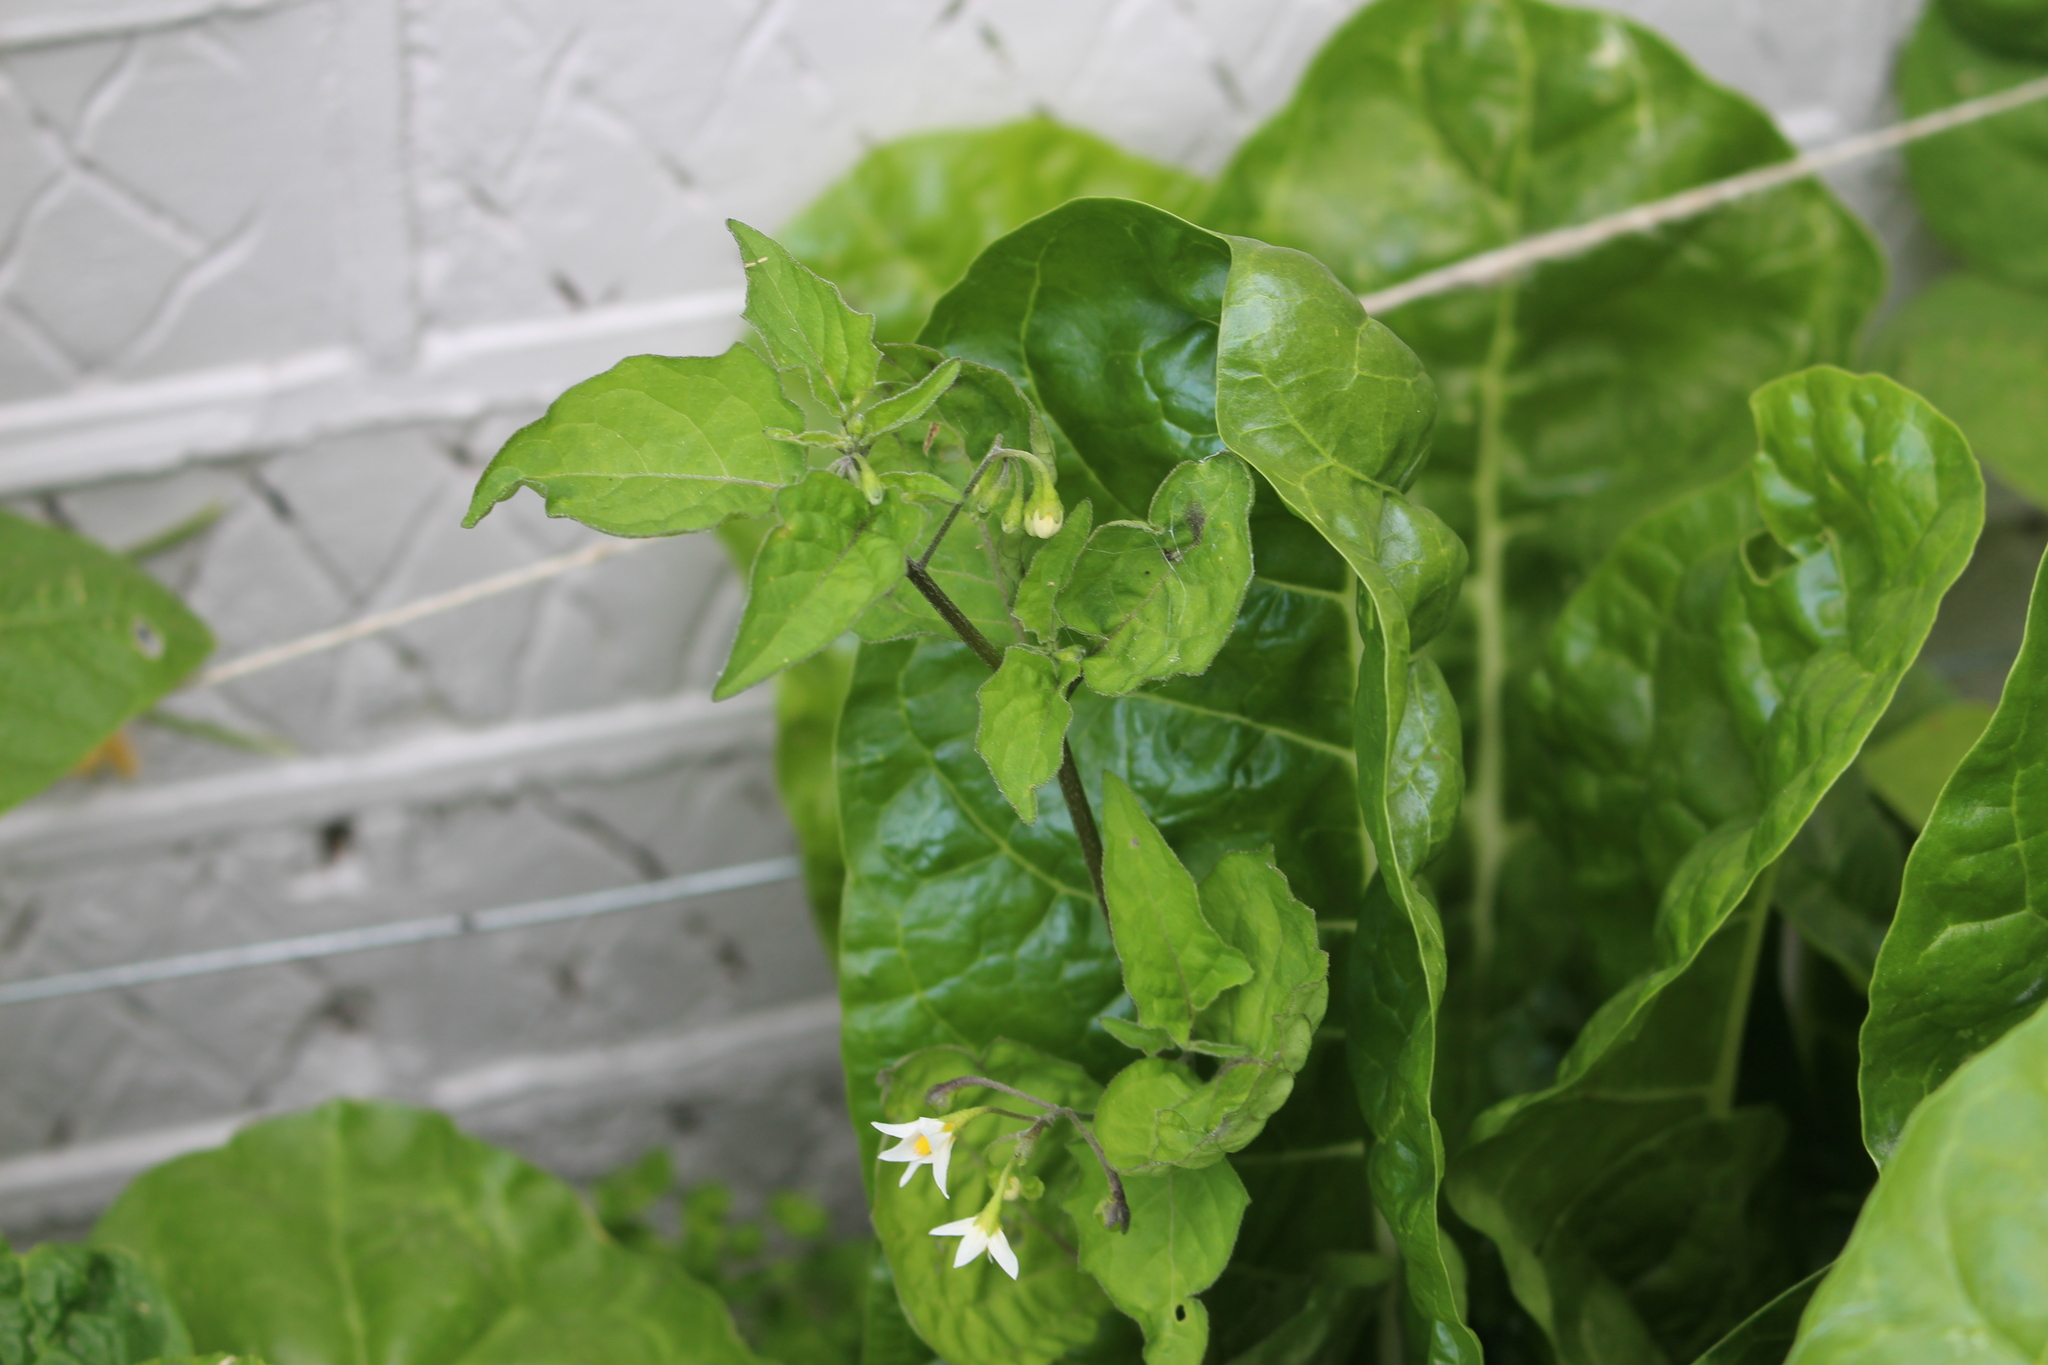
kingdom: Plantae
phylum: Tracheophyta
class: Magnoliopsida
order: Solanales
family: Solanaceae
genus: Solanum
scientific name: Solanum chenopodioides
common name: Tall nightshade
